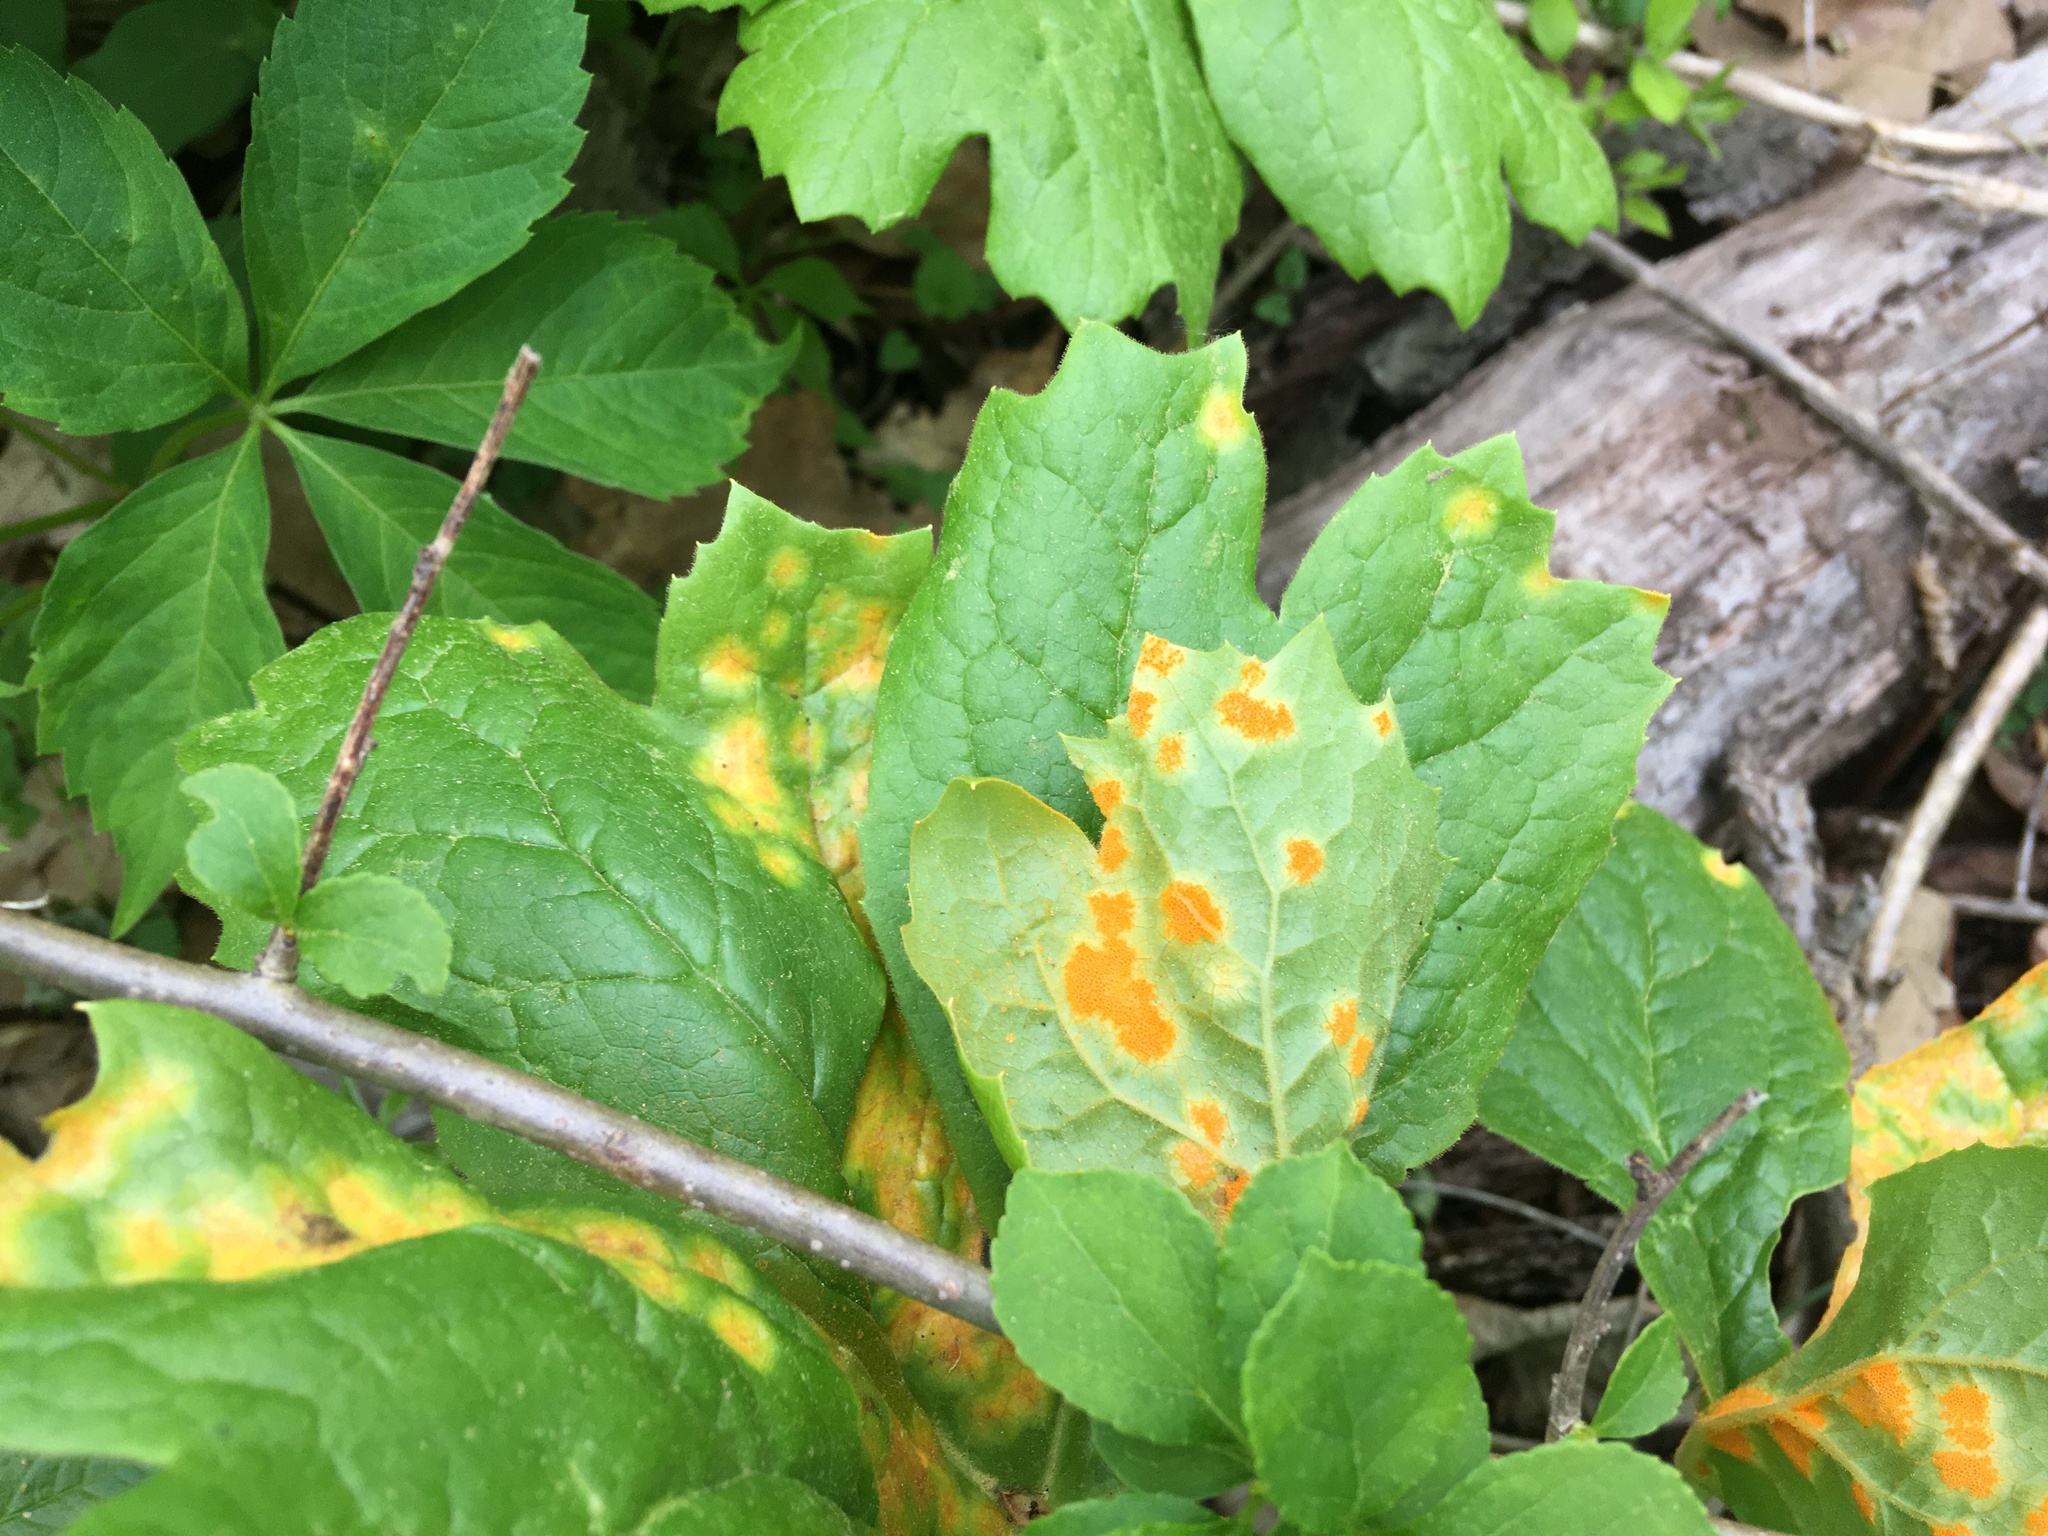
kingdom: Fungi
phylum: Basidiomycota
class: Pucciniomycetes
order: Pucciniales
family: Pucciniaceae
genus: Puccinia
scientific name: Puccinia podophylli
